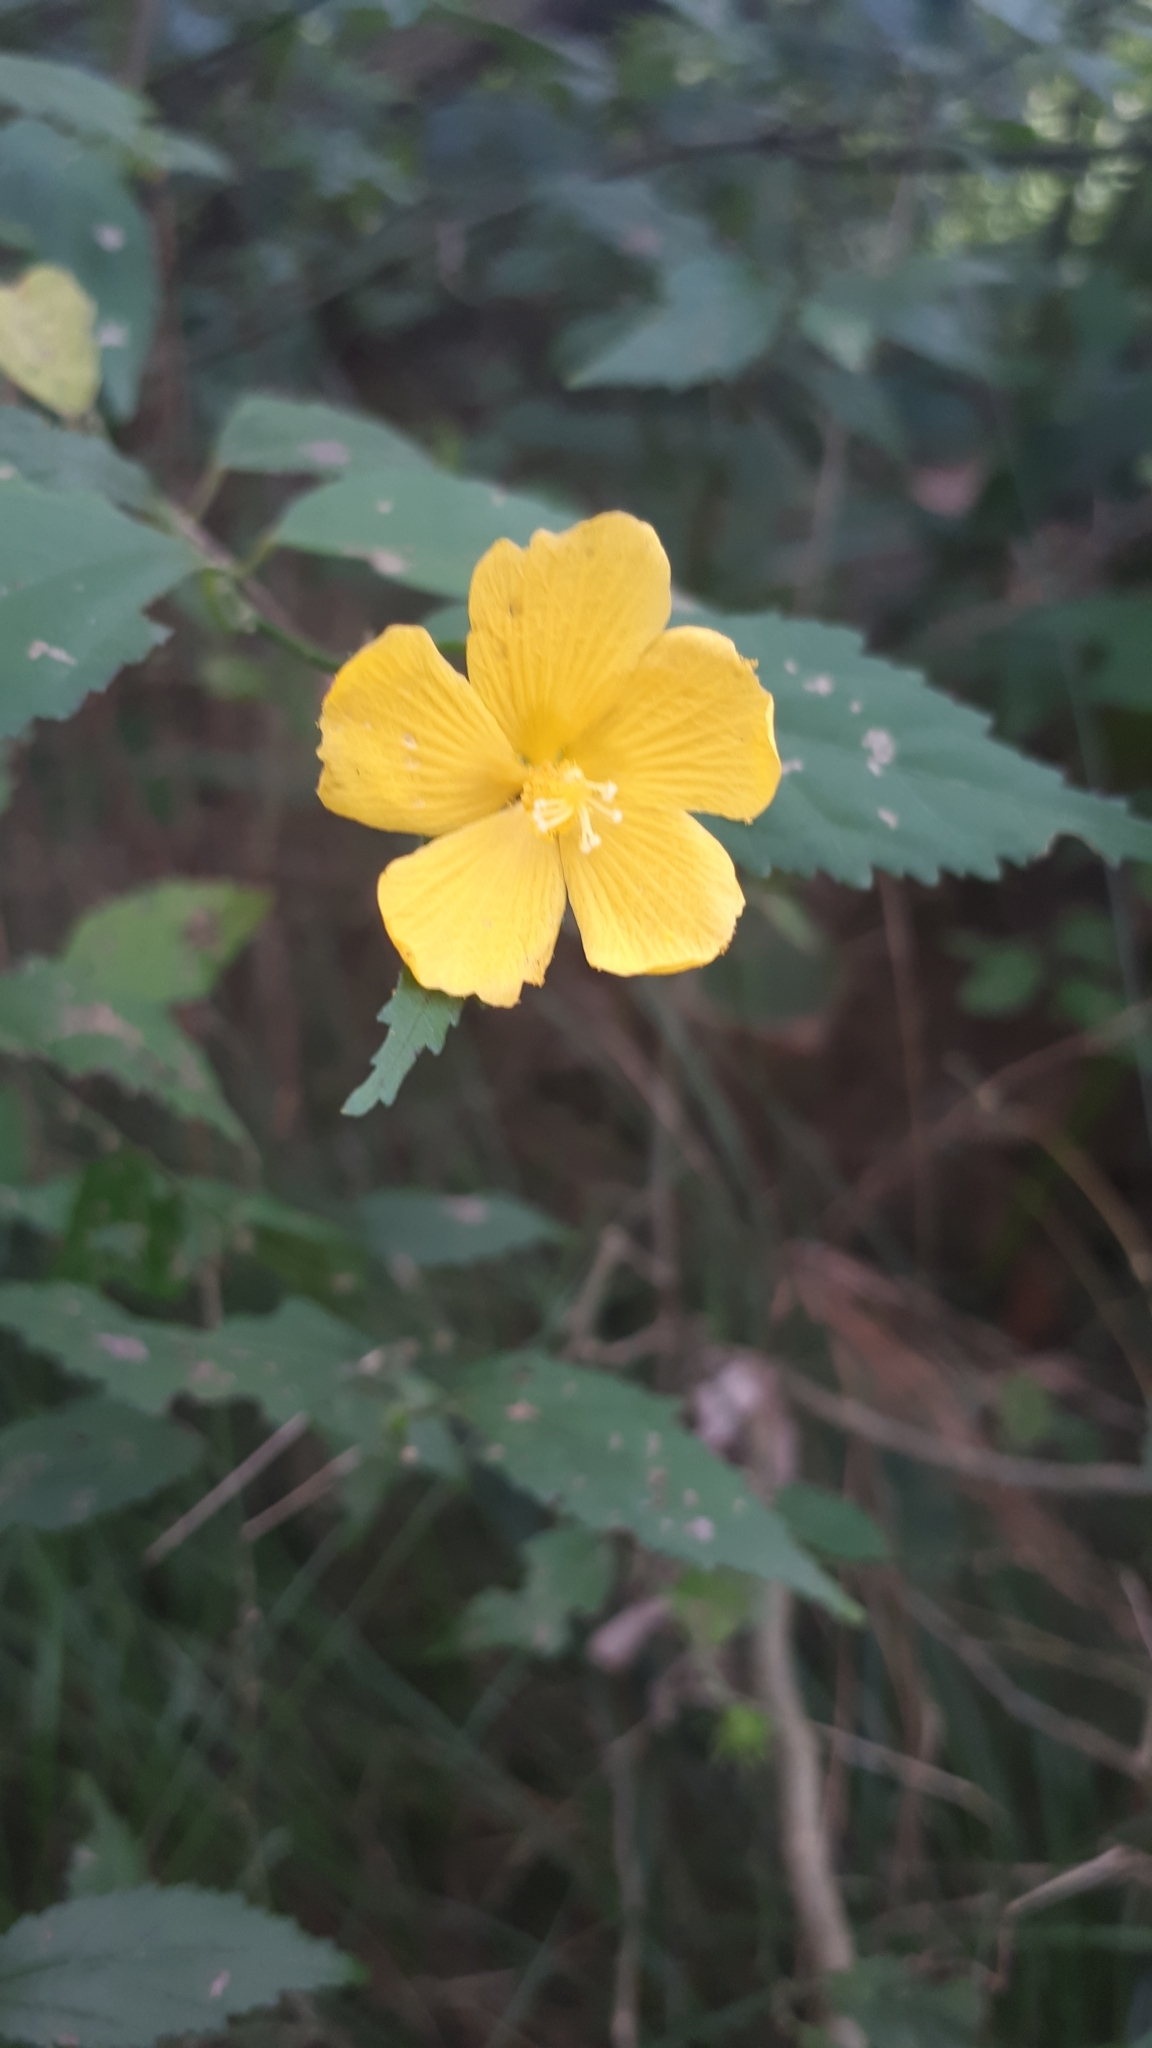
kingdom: Plantae
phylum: Tracheophyta
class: Magnoliopsida
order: Malvales
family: Malvaceae
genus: Pavonia
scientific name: Pavonia sepium
